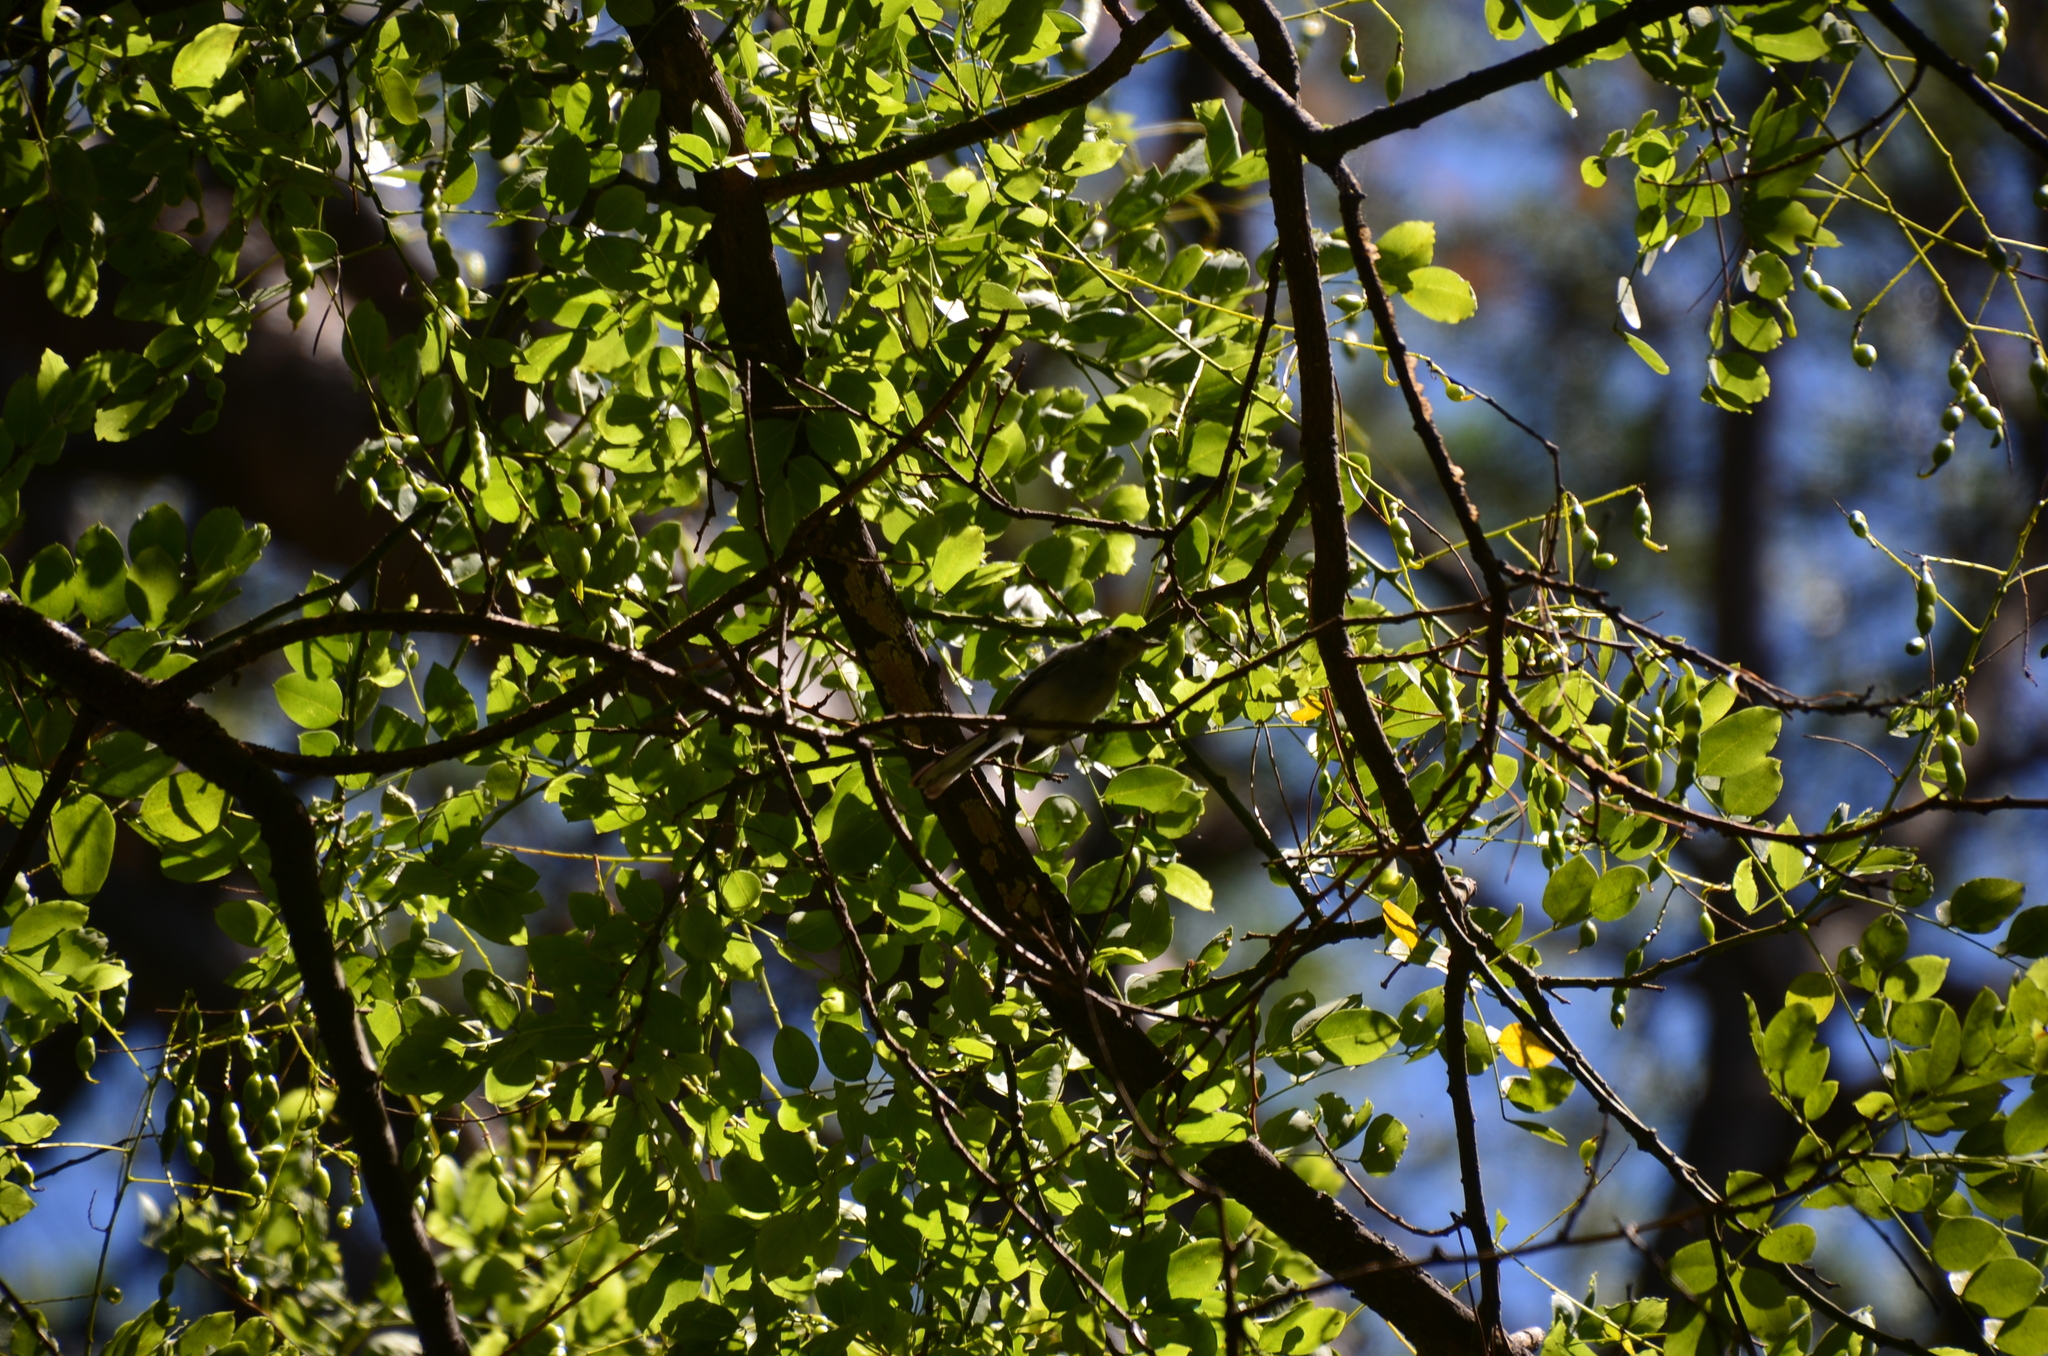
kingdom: Animalia
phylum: Chordata
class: Aves
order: Passeriformes
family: Polioptilidae
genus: Polioptila
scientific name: Polioptila dumicola
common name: Masked gnatcatcher
